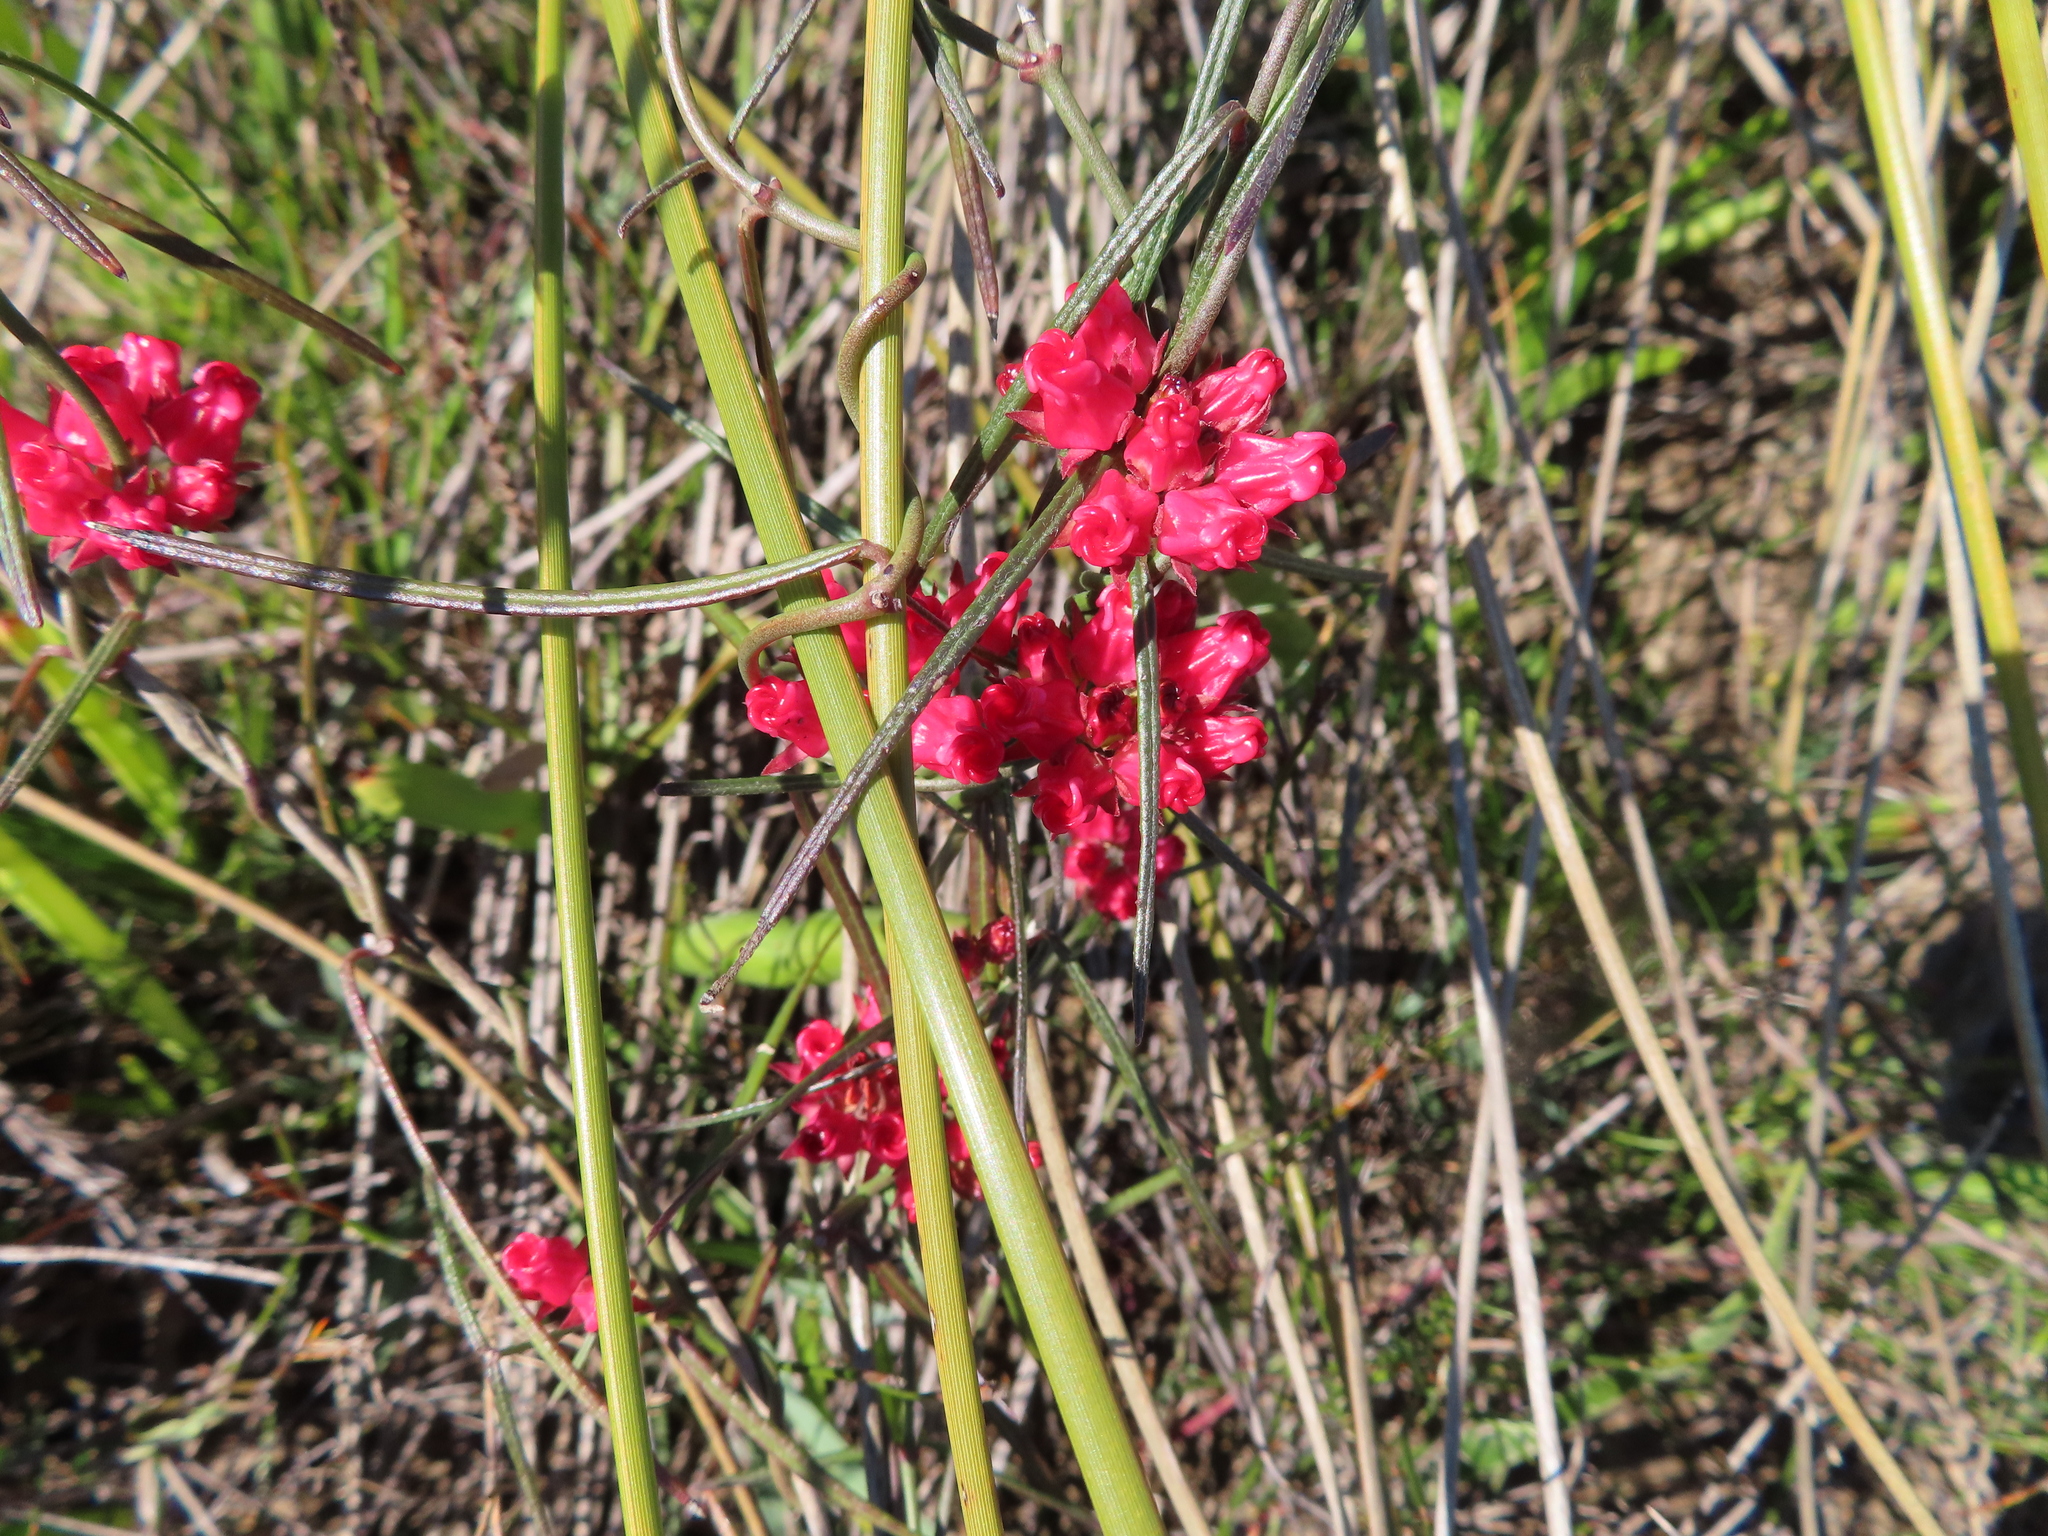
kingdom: Plantae
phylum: Tracheophyta
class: Magnoliopsida
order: Gentianales
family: Apocynaceae
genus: Microloma
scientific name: Microloma tenuifolium
